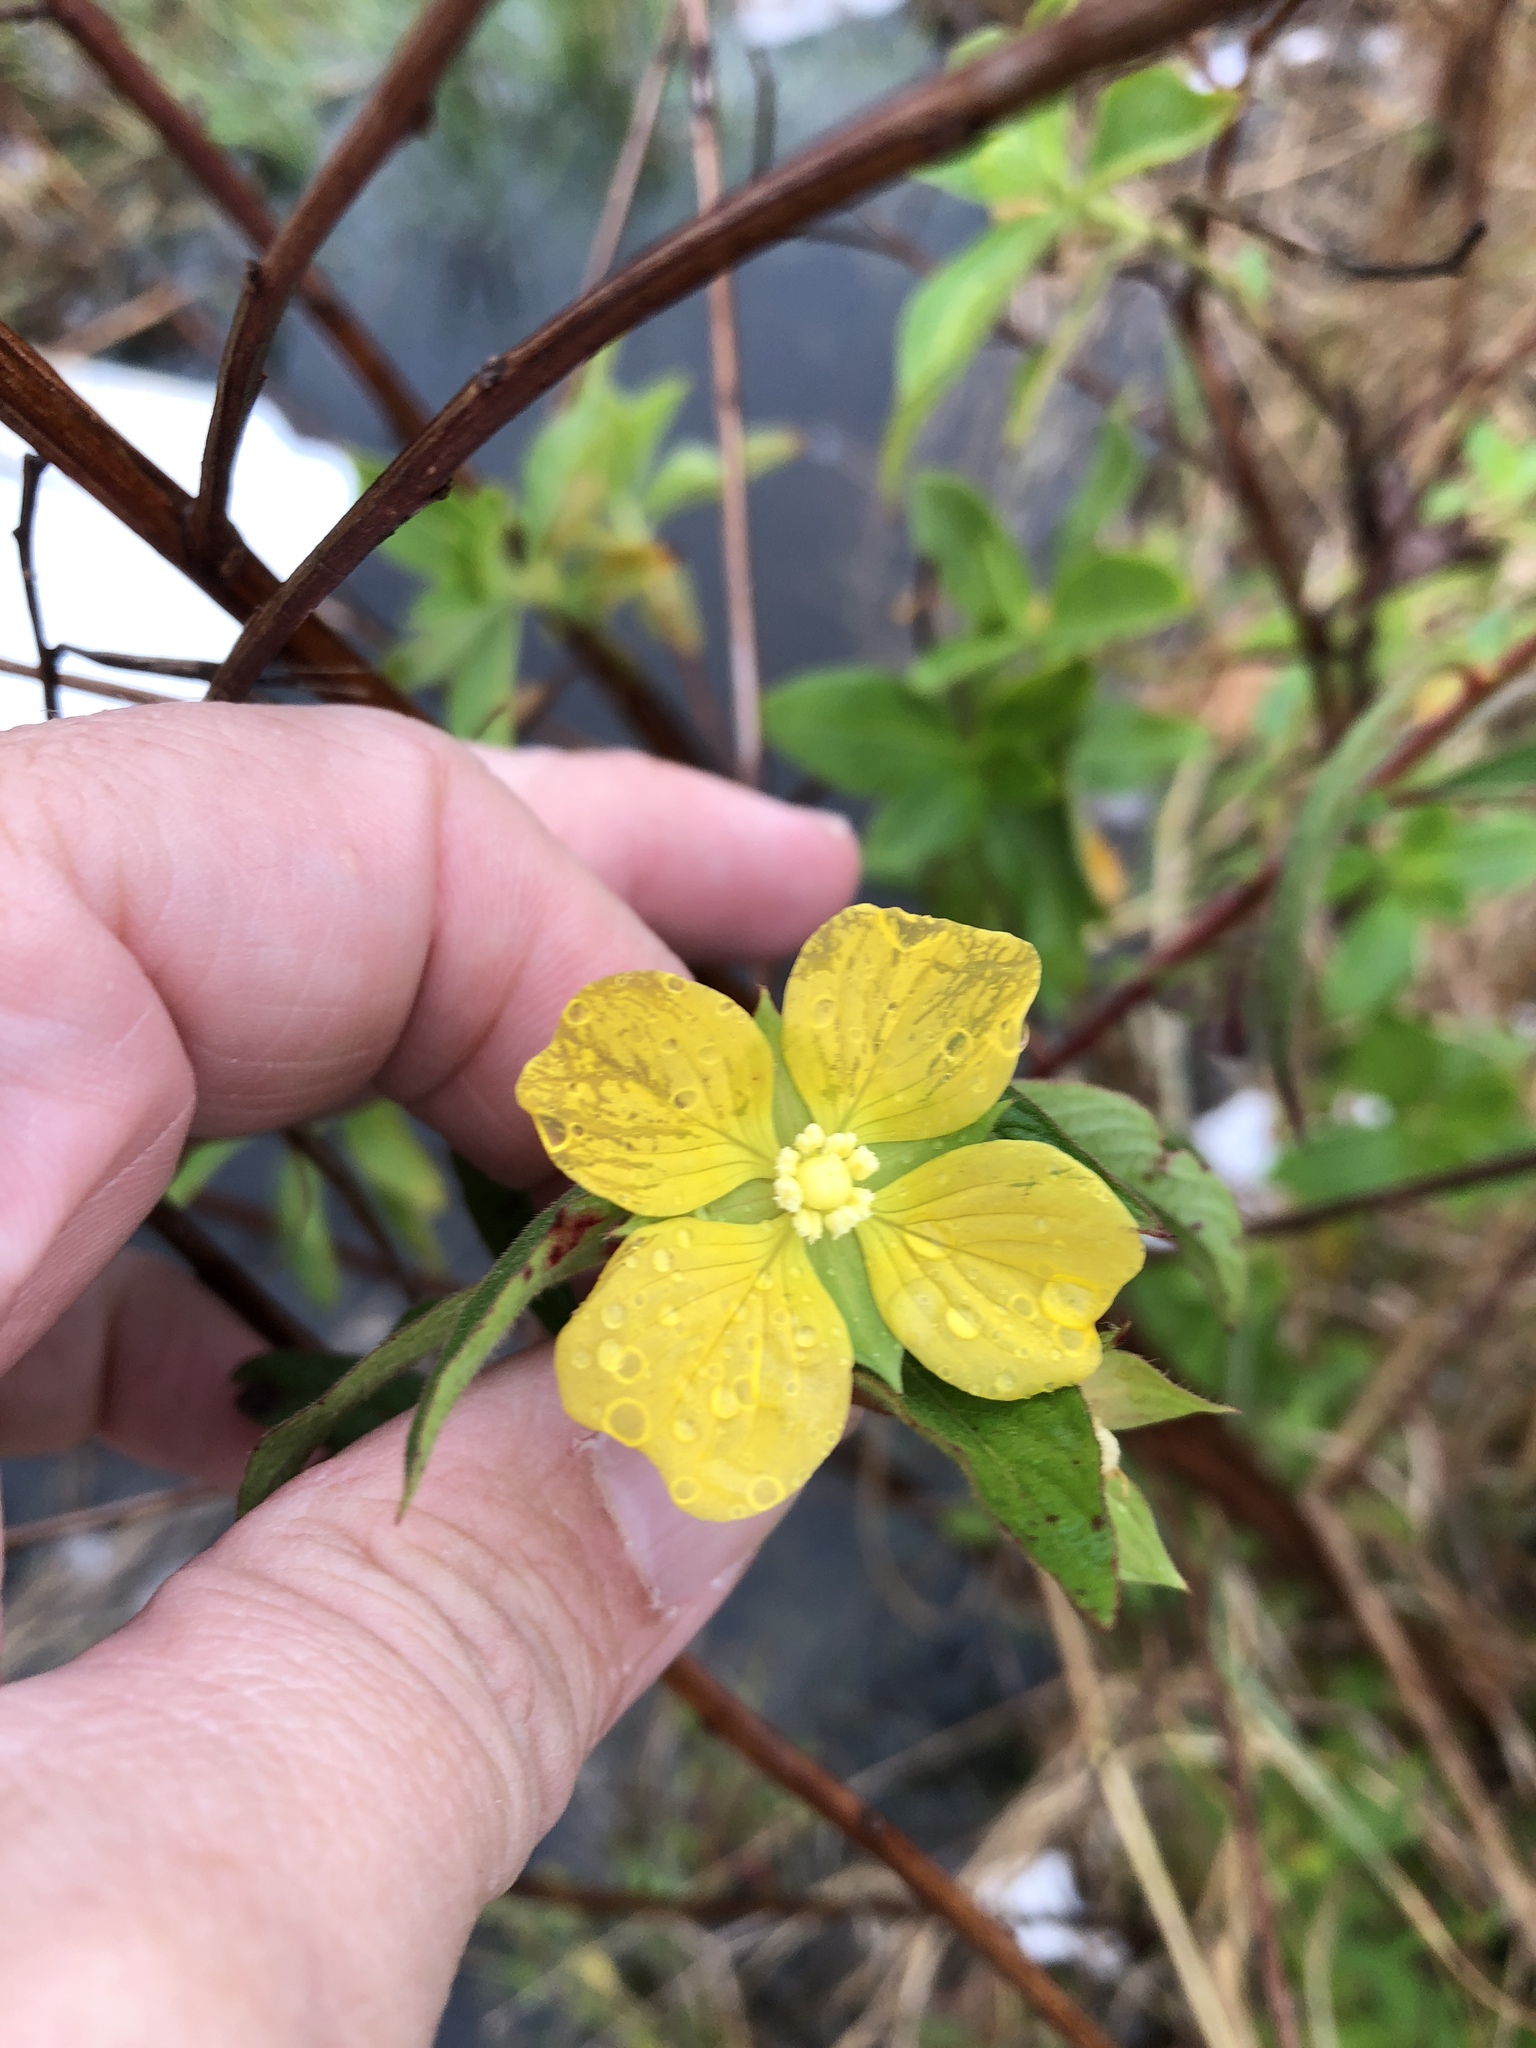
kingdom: Plantae
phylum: Tracheophyta
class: Magnoliopsida
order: Myrtales
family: Onagraceae
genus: Ludwigia
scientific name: Ludwigia octovalvis
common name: Water-primrose
